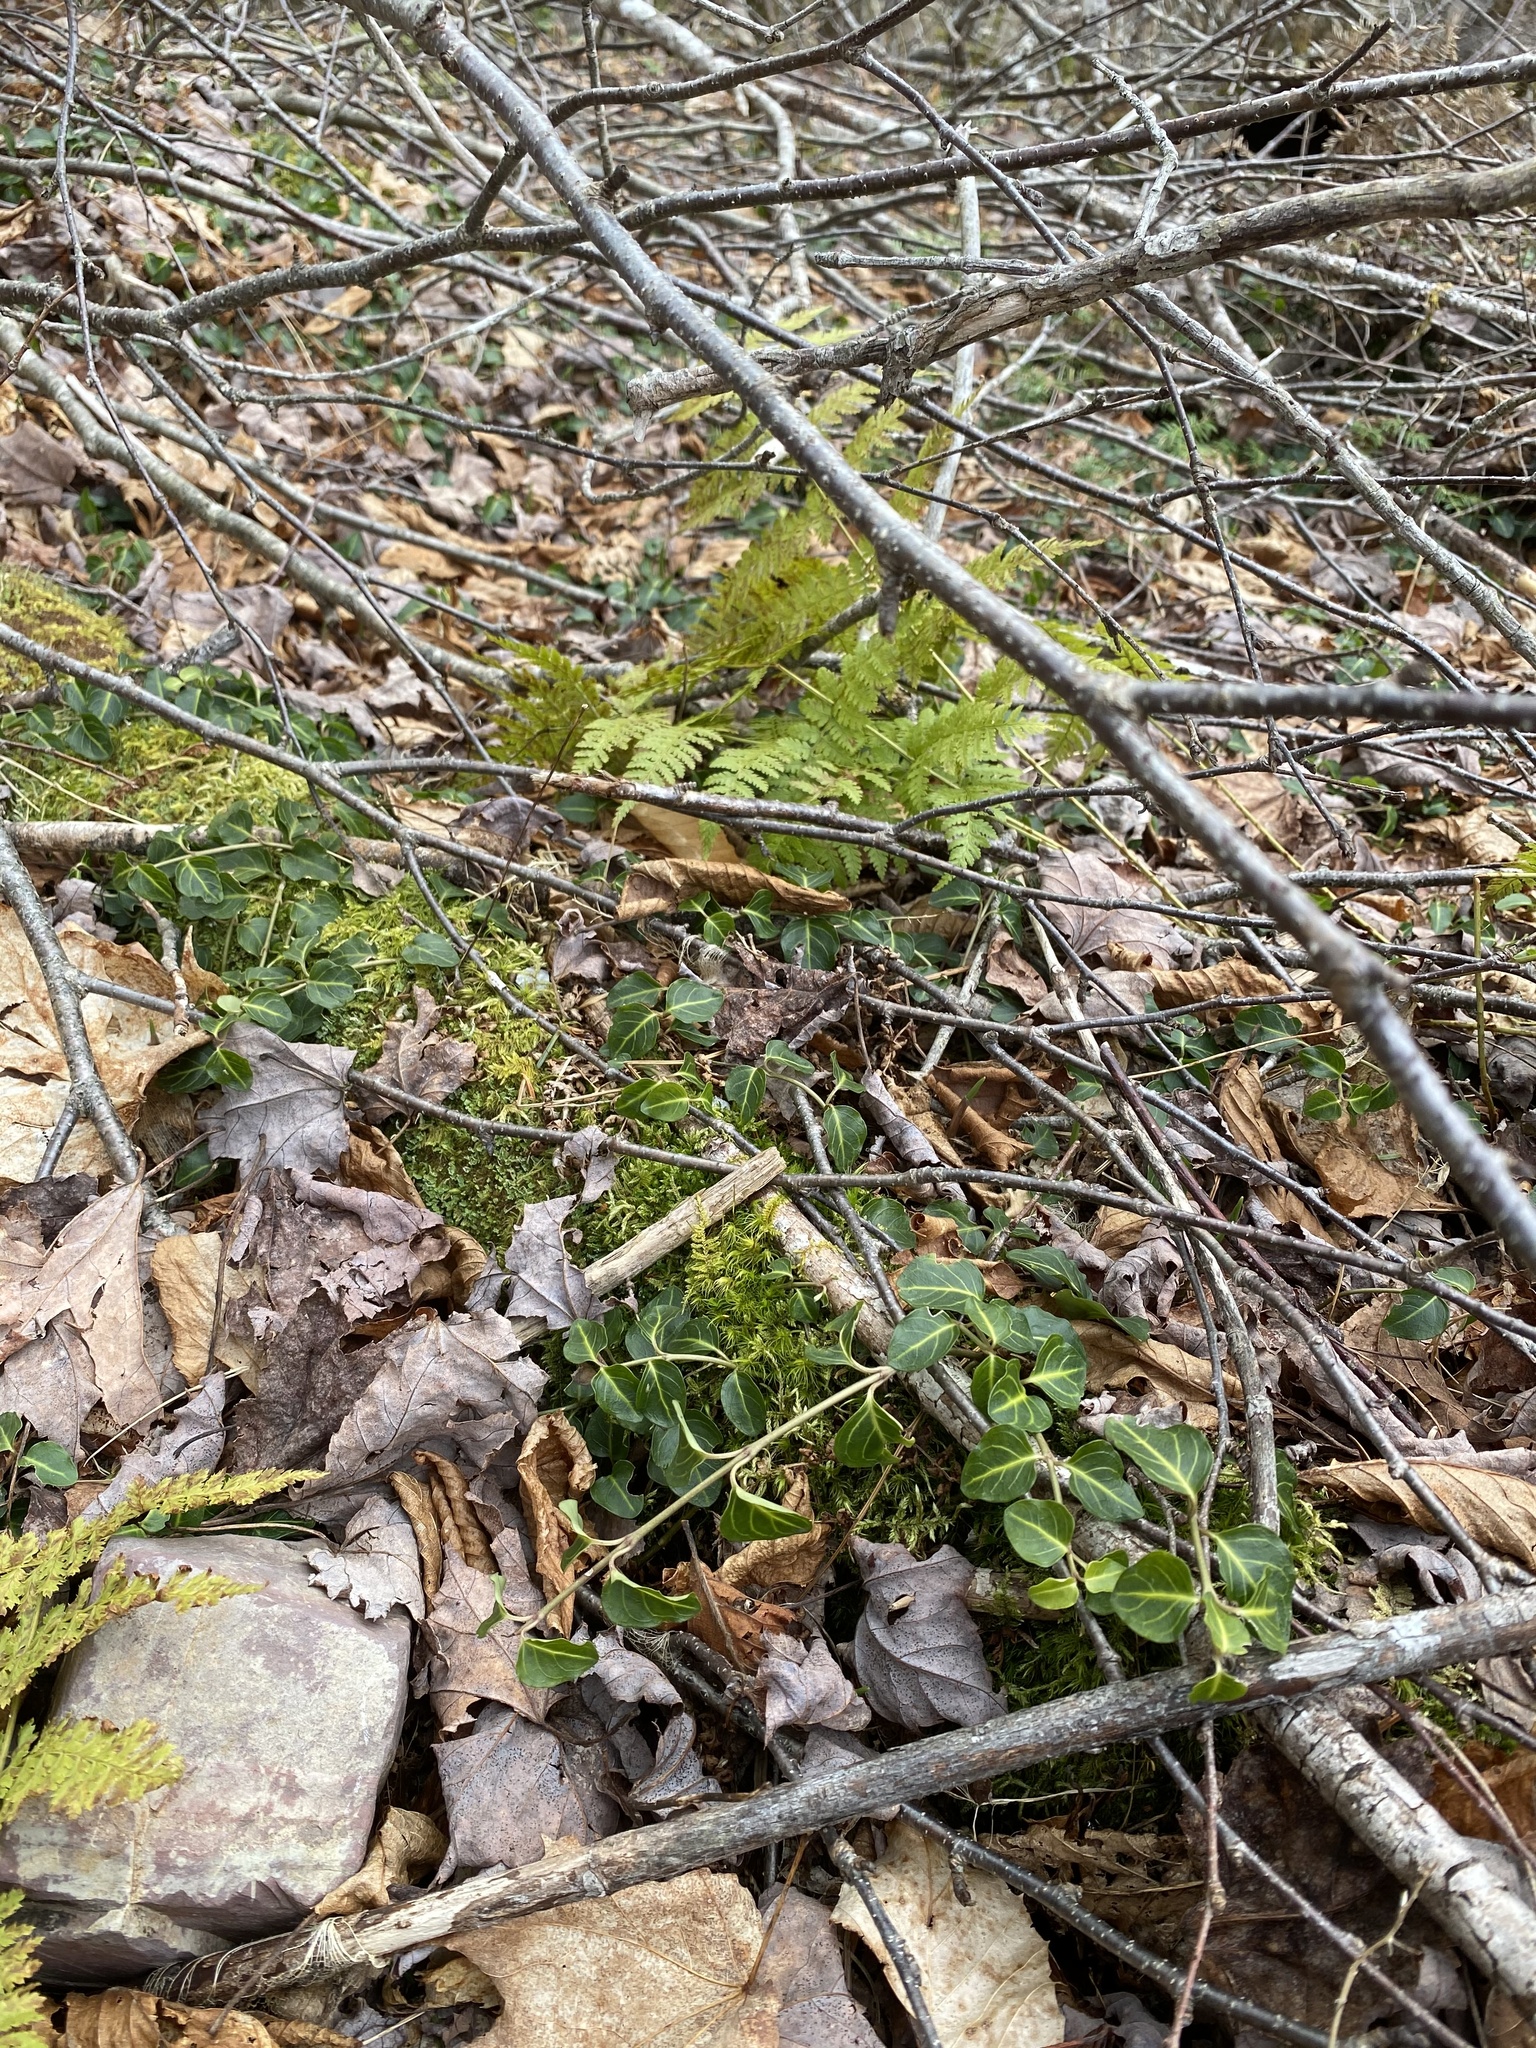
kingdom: Plantae
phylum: Tracheophyta
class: Magnoliopsida
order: Gentianales
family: Rubiaceae
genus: Mitchella
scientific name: Mitchella repens
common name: Partridge-berry
